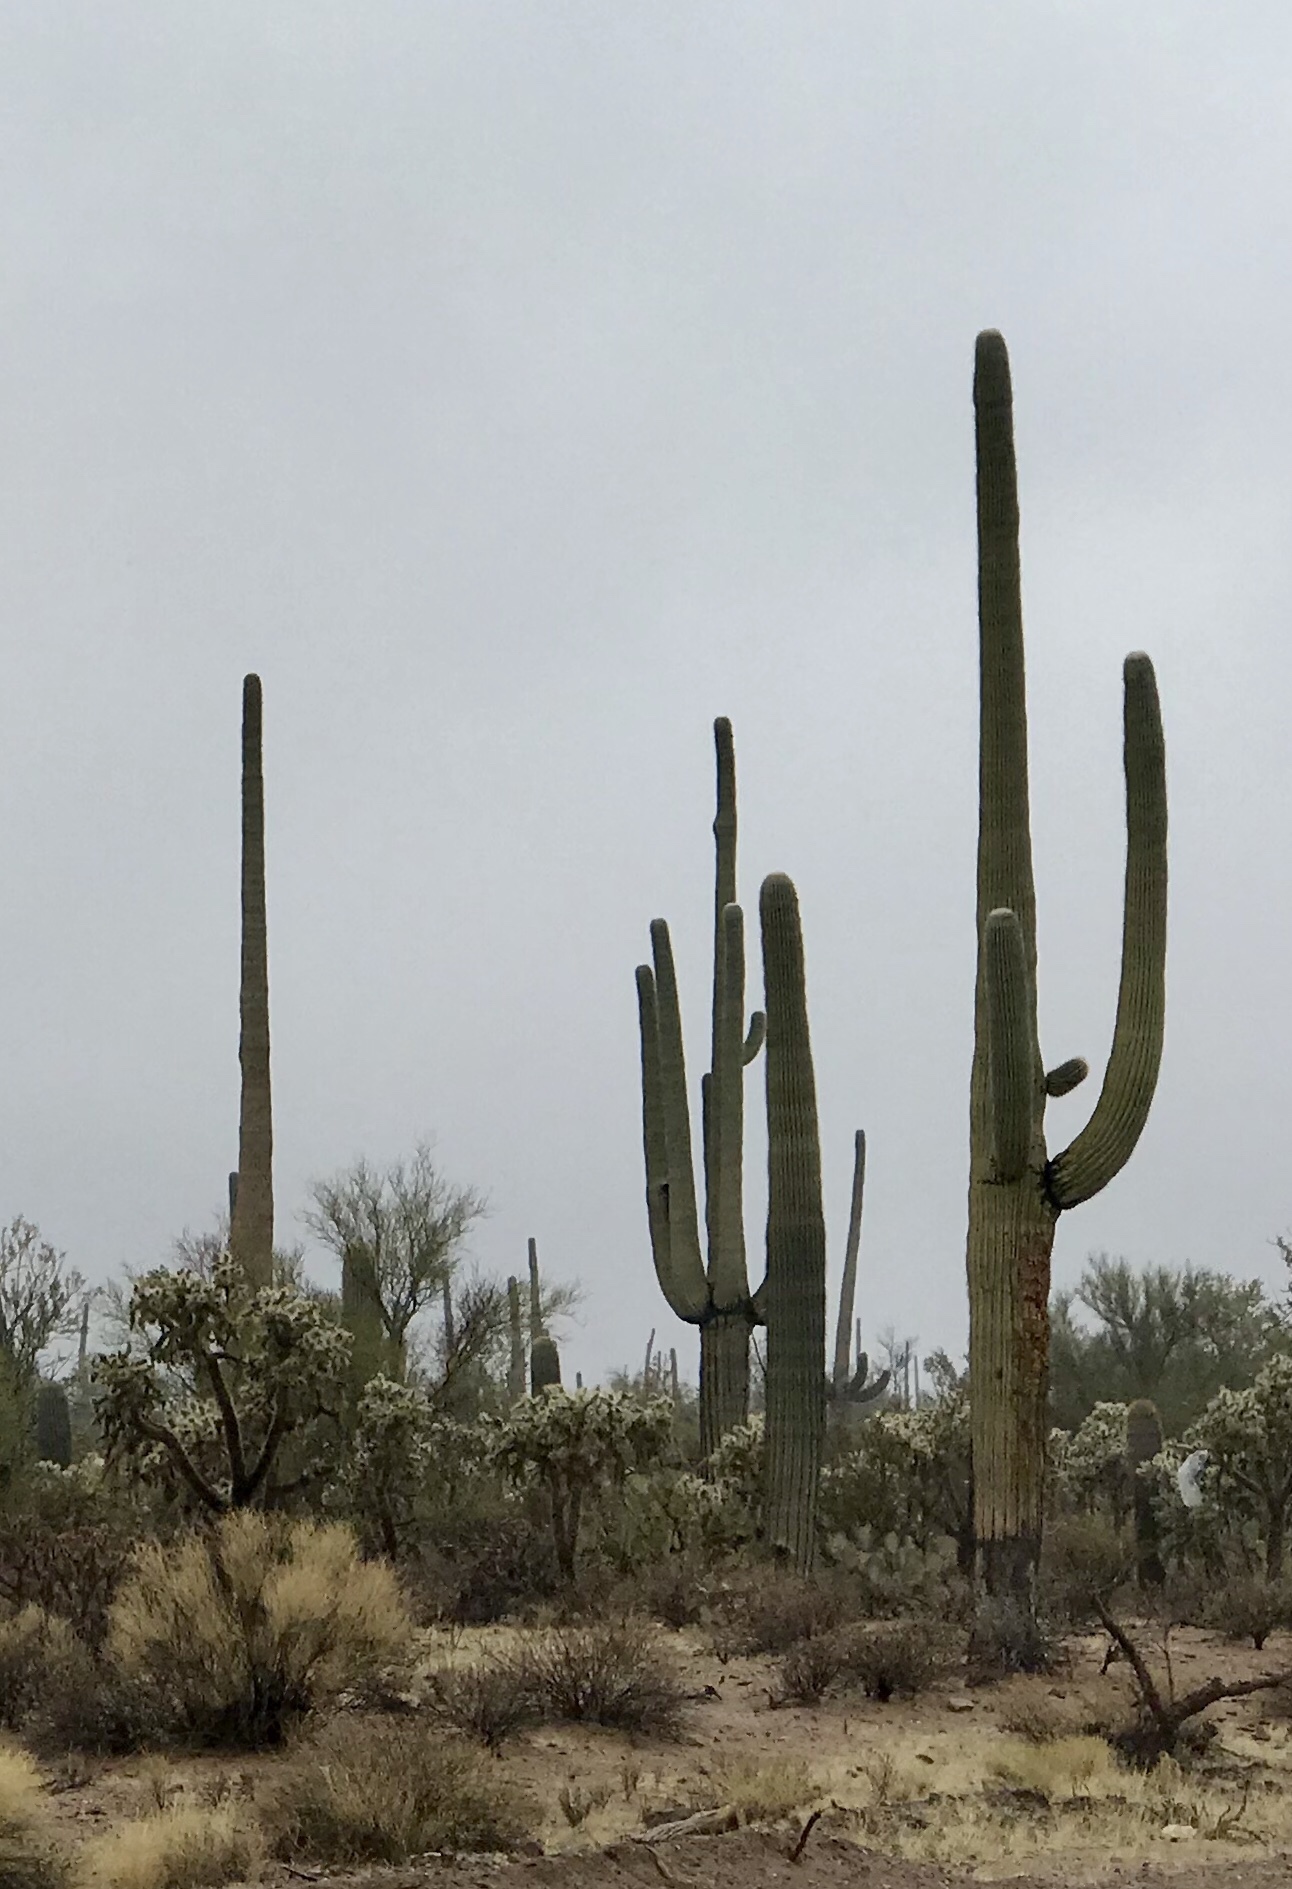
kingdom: Plantae
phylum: Tracheophyta
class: Magnoliopsida
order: Caryophyllales
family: Cactaceae
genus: Carnegiea
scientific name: Carnegiea gigantea
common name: Saguaro
